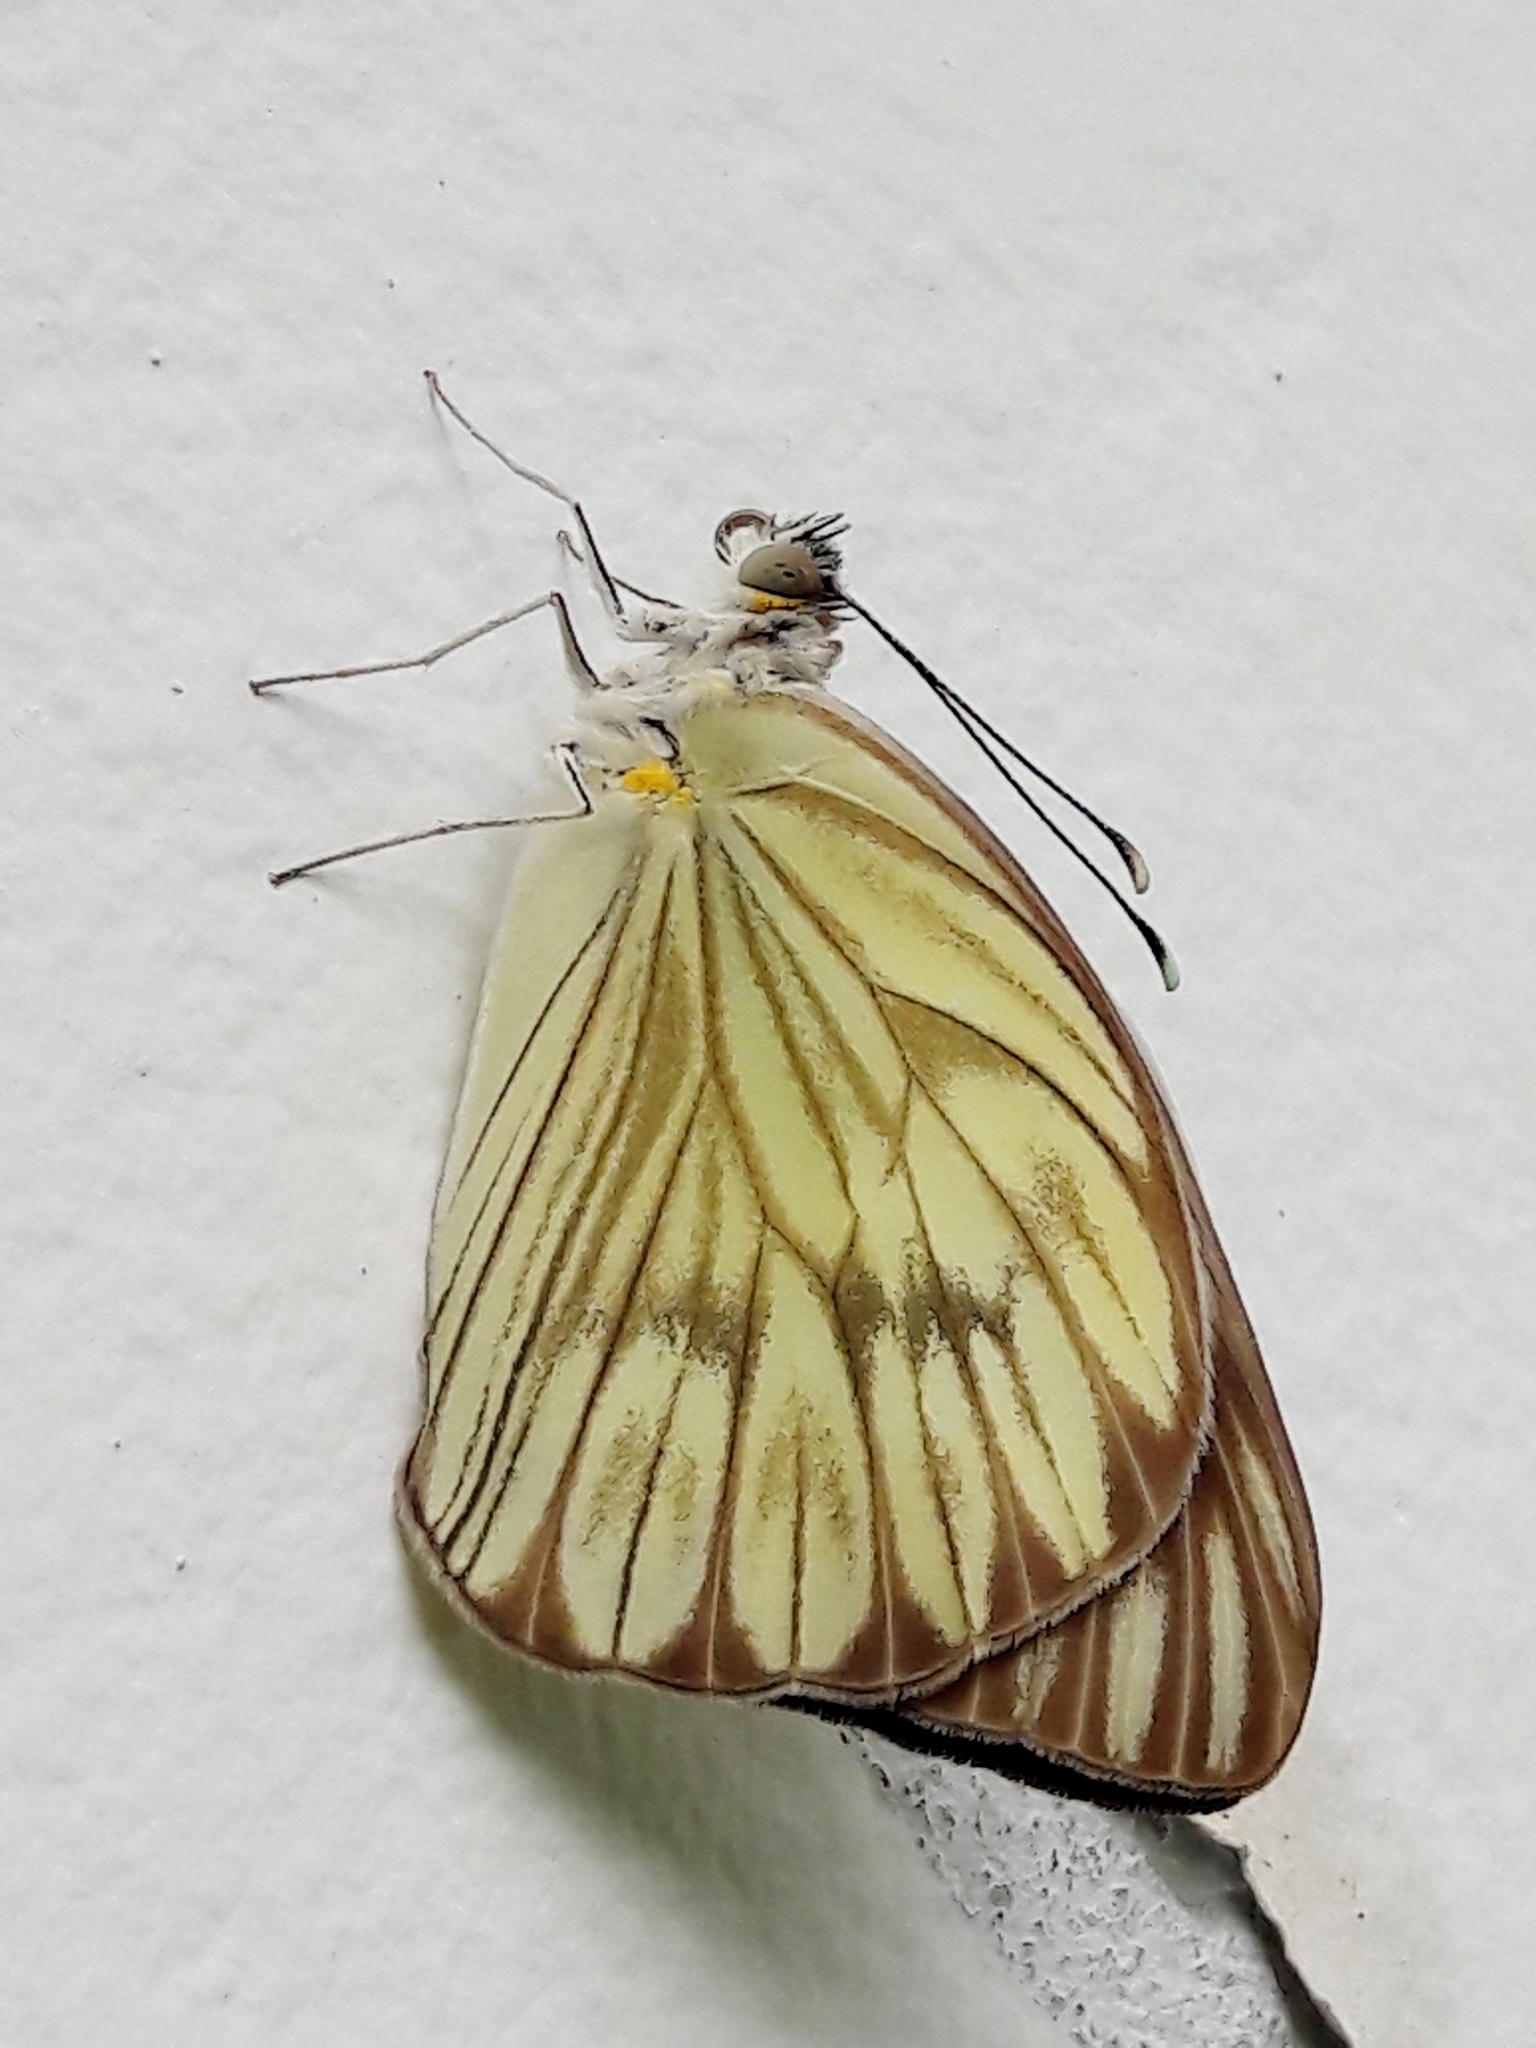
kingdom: Animalia
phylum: Arthropoda
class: Insecta
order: Lepidoptera
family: Pieridae
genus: Ascia
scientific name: Ascia monuste
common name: Great southern white
